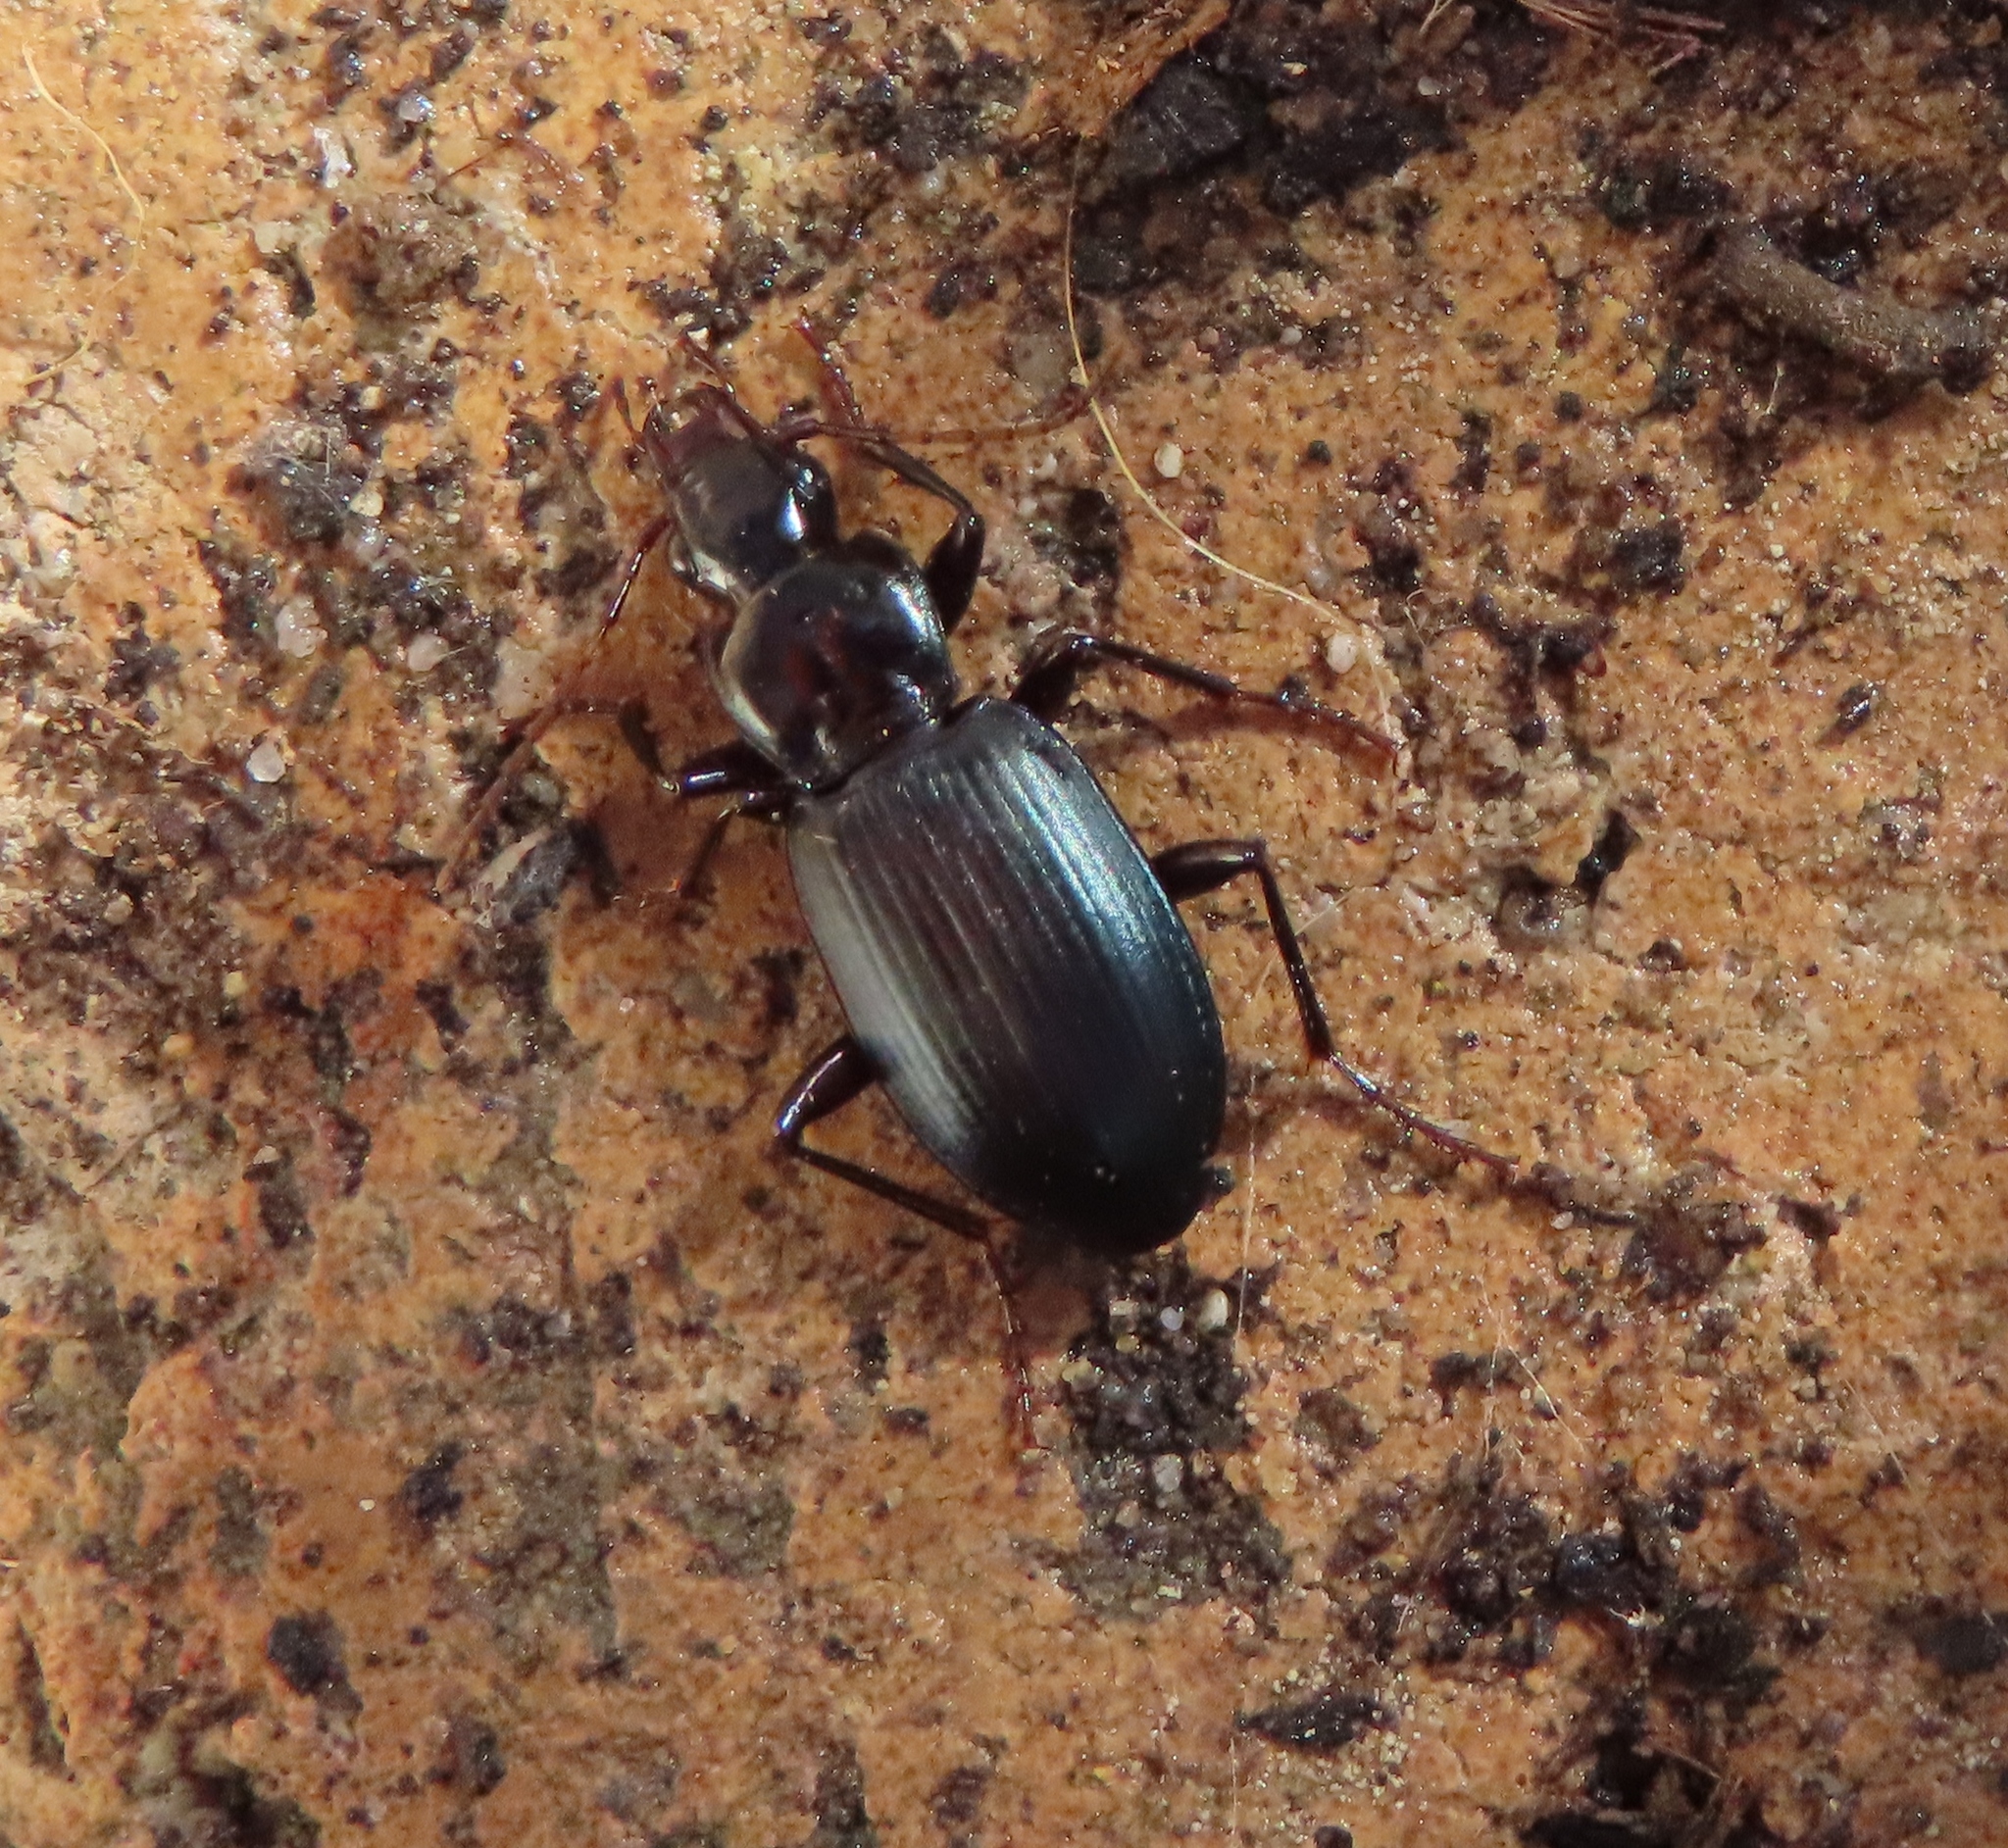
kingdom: Animalia
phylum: Arthropoda
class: Insecta
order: Coleoptera
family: Carabidae
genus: Laemostenus
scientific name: Laemostenus complanatus
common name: Cosmopolitan ground beetle
